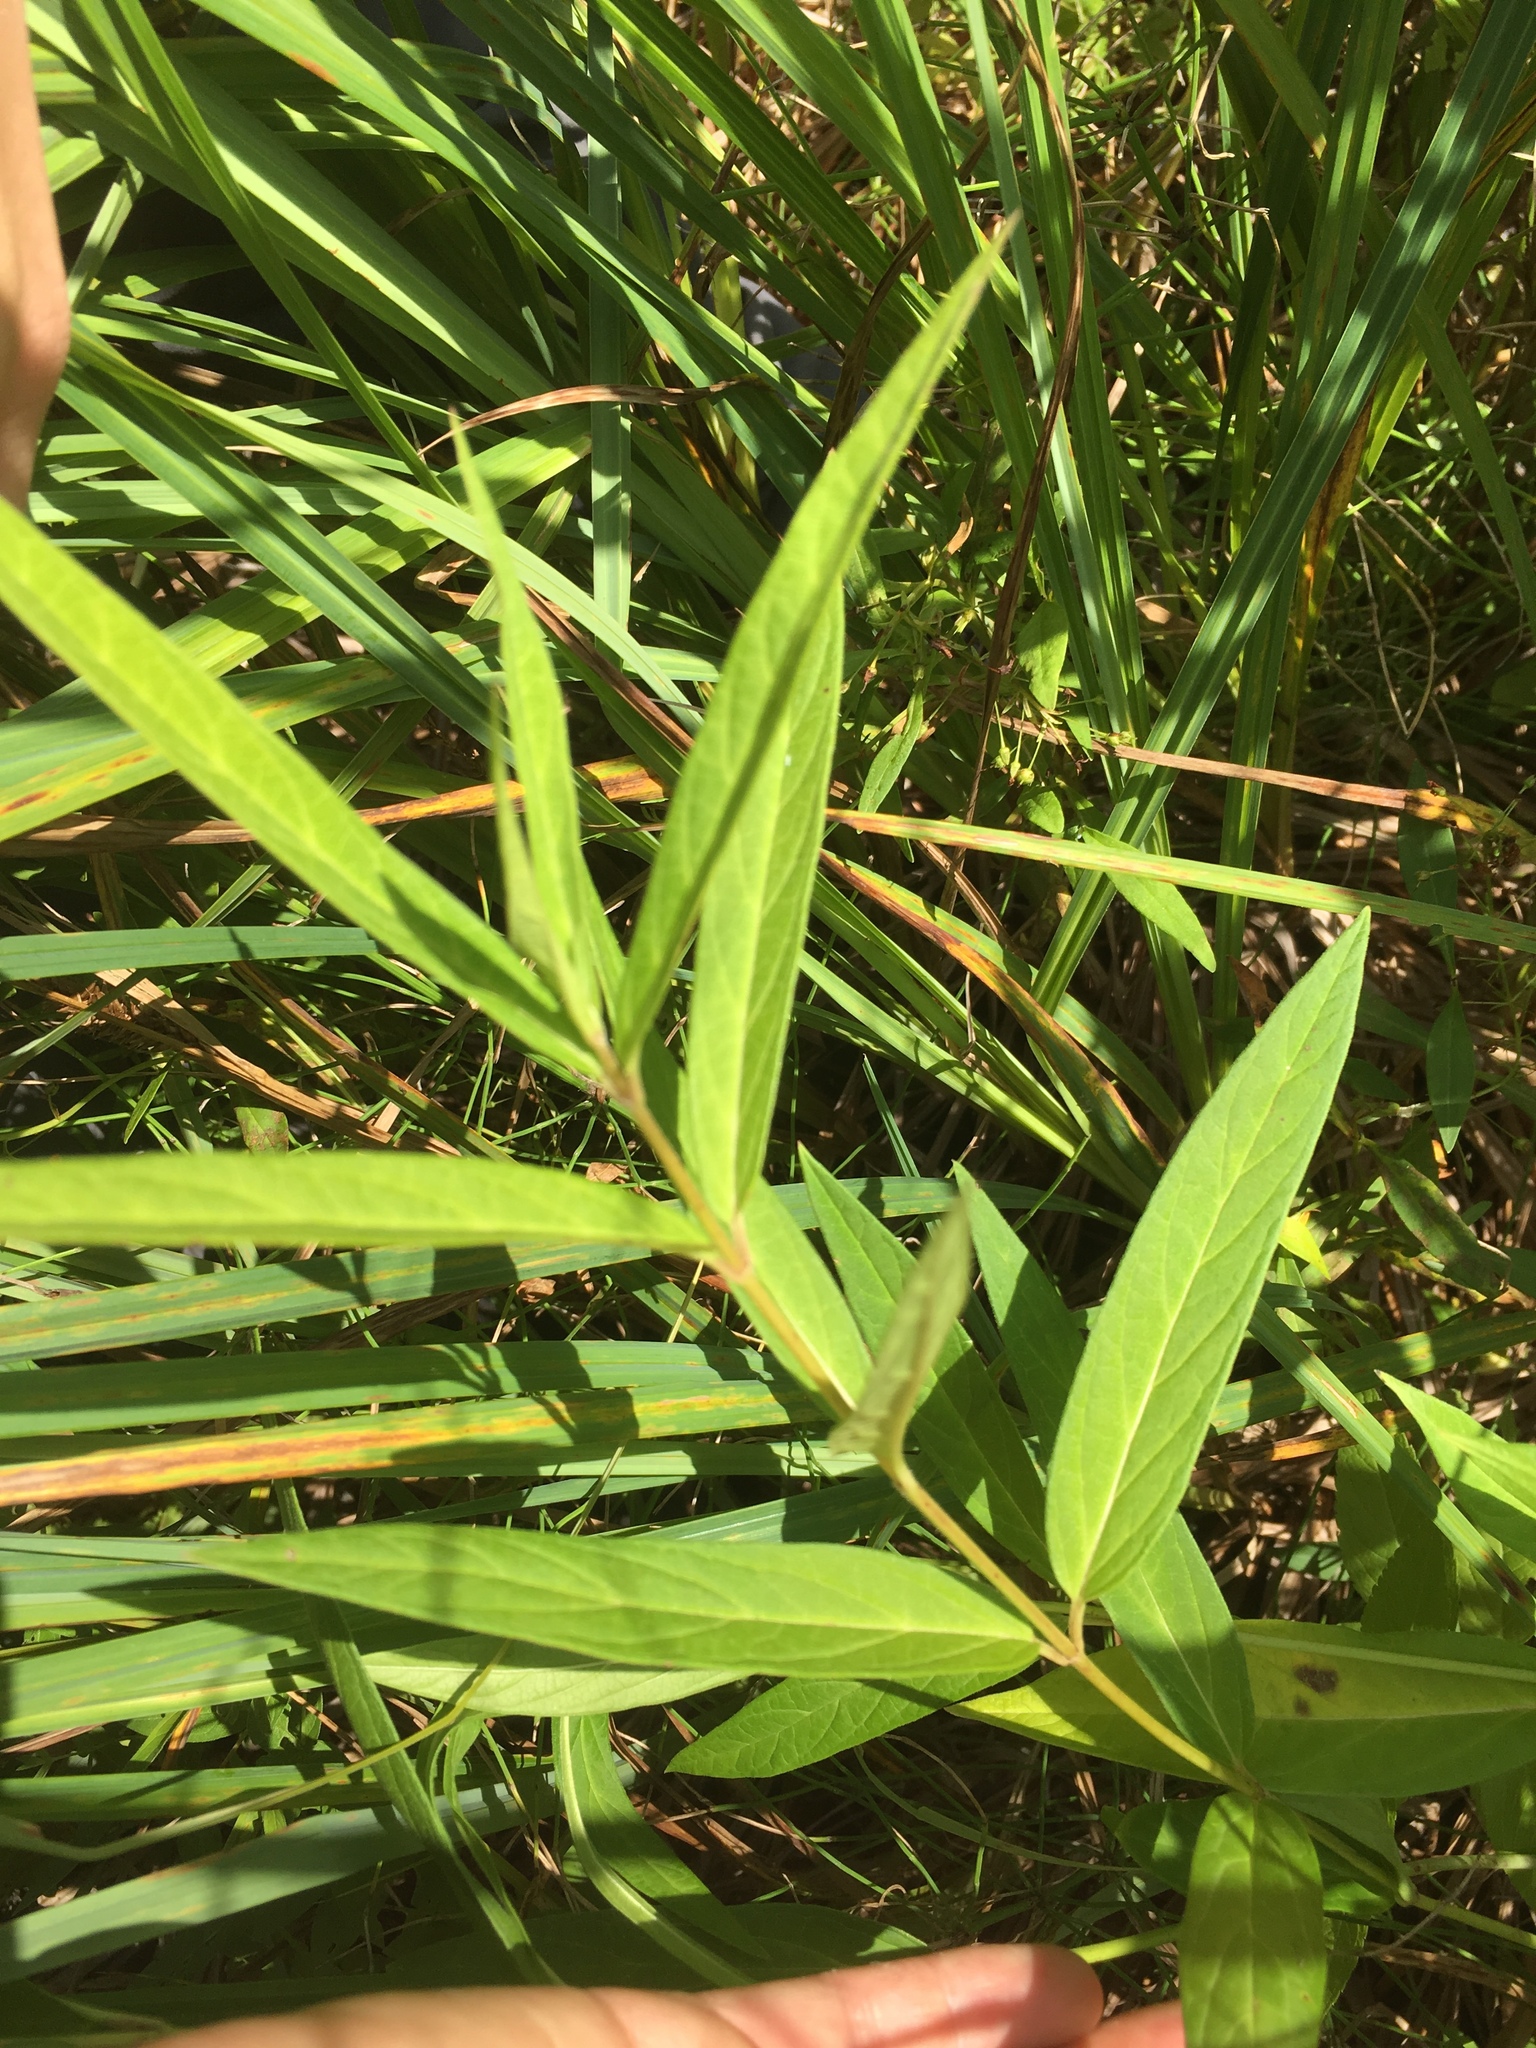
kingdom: Plantae
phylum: Tracheophyta
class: Magnoliopsida
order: Gentianales
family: Apocynaceae
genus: Asclepias
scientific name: Asclepias incarnata
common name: Swamp milkweed
